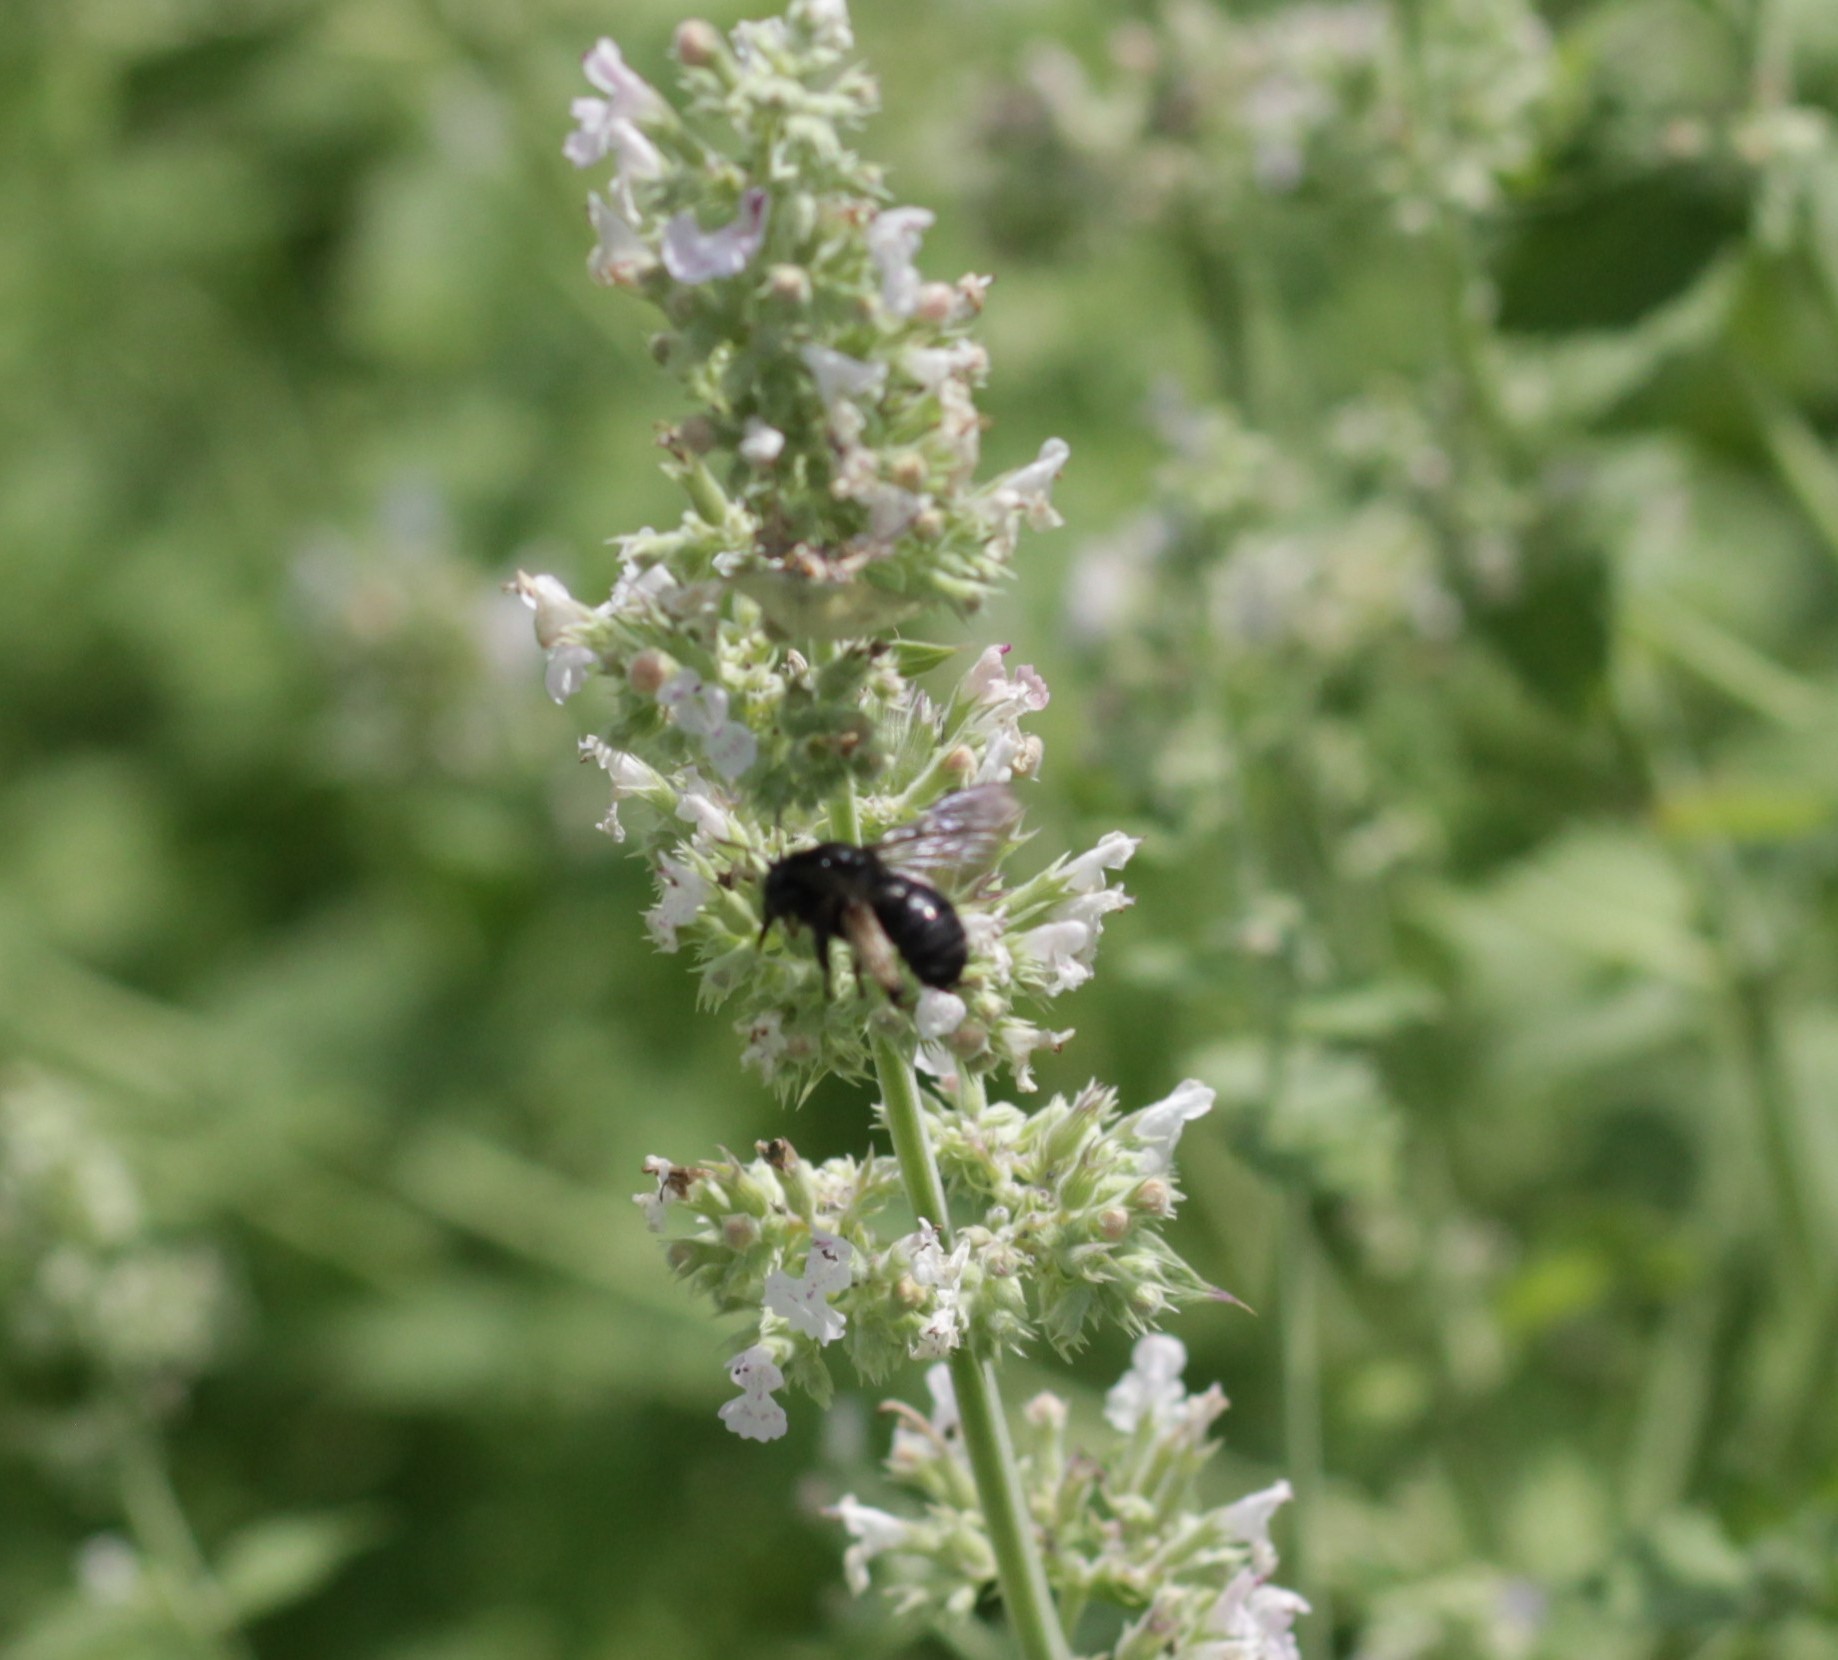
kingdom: Animalia
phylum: Arthropoda
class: Insecta
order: Hymenoptera
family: Apidae
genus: Melissodes
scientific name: Melissodes bimaculatus
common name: Two-spotted long-horned bee
